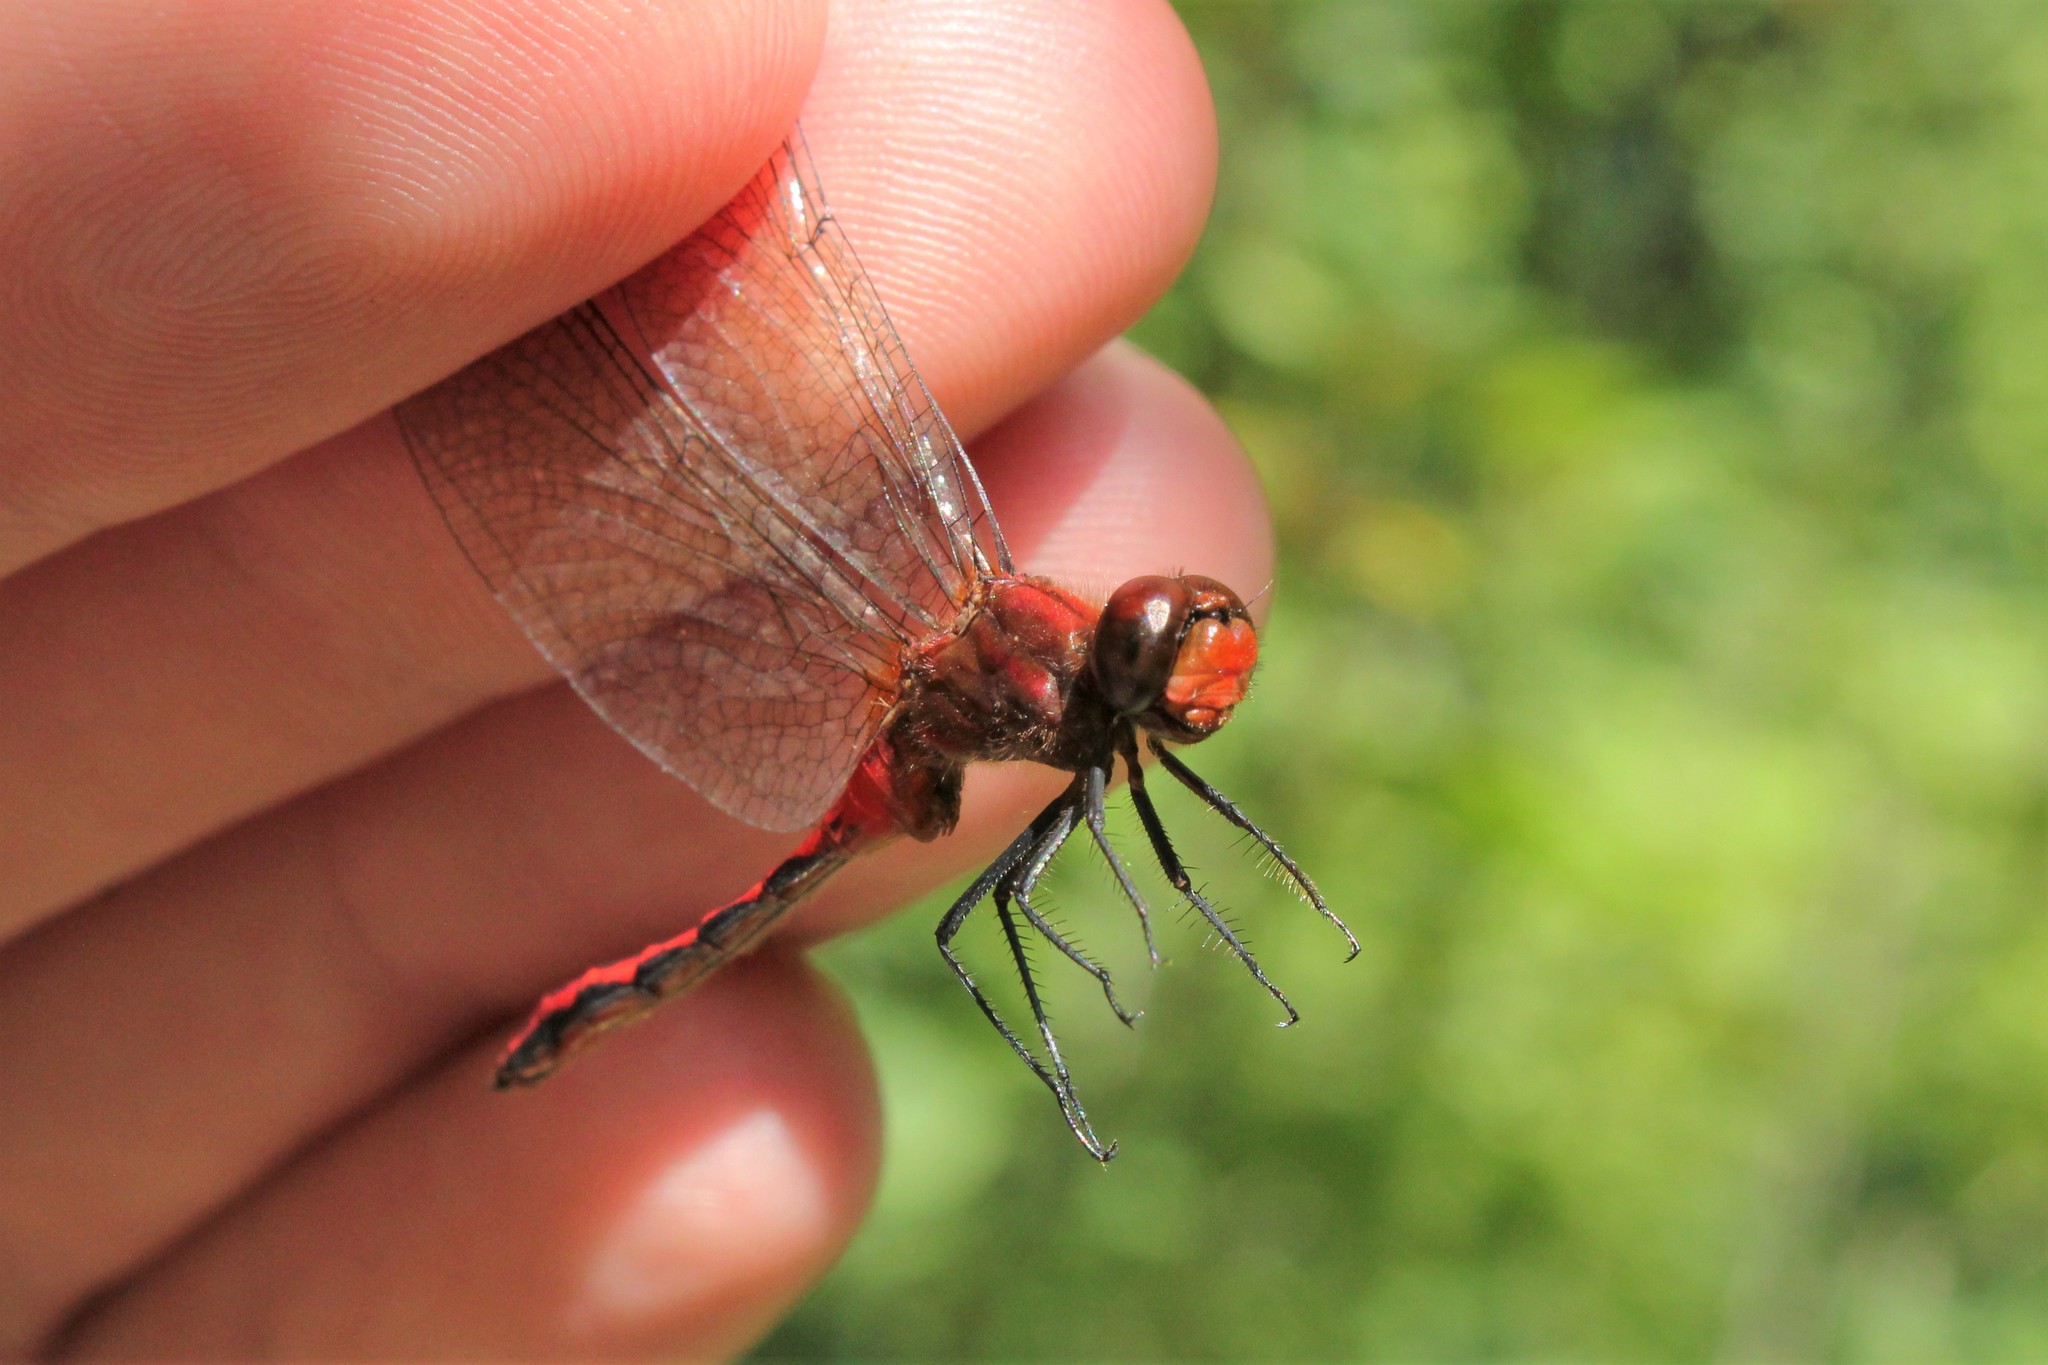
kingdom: Animalia
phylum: Arthropoda
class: Insecta
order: Odonata
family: Libellulidae
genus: Sympetrum
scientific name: Sympetrum internum
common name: Cherry-faced meadowhawk
